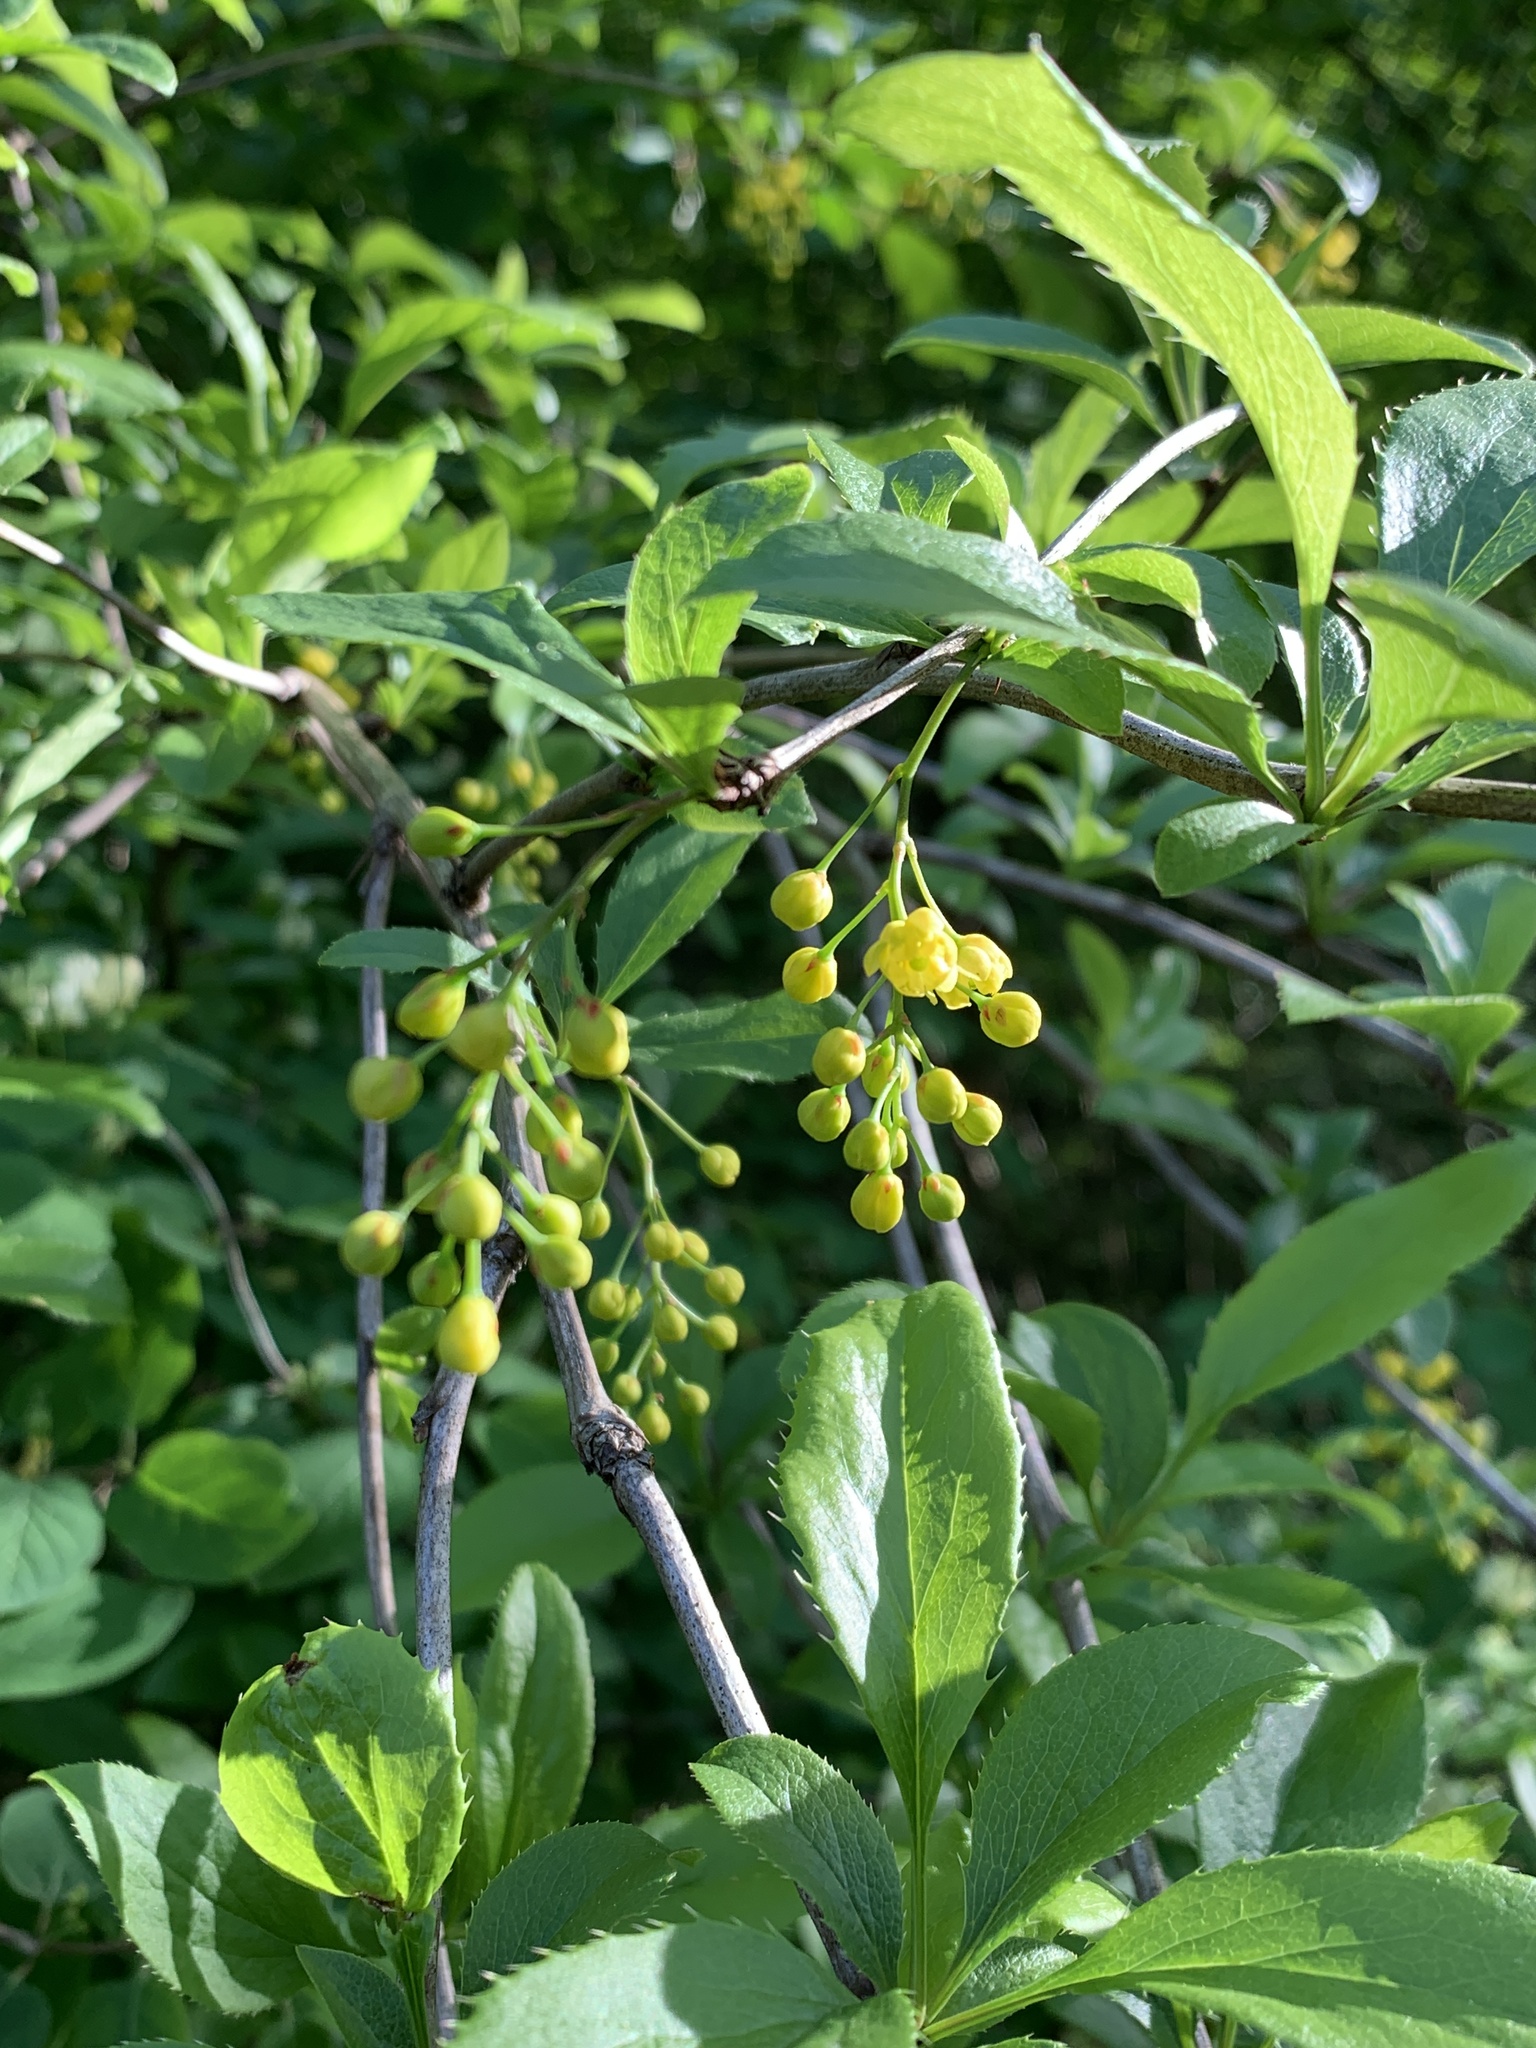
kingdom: Plantae
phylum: Tracheophyta
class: Magnoliopsida
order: Ranunculales
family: Berberidaceae
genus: Berberis
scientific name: Berberis vulgaris
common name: Barberry
